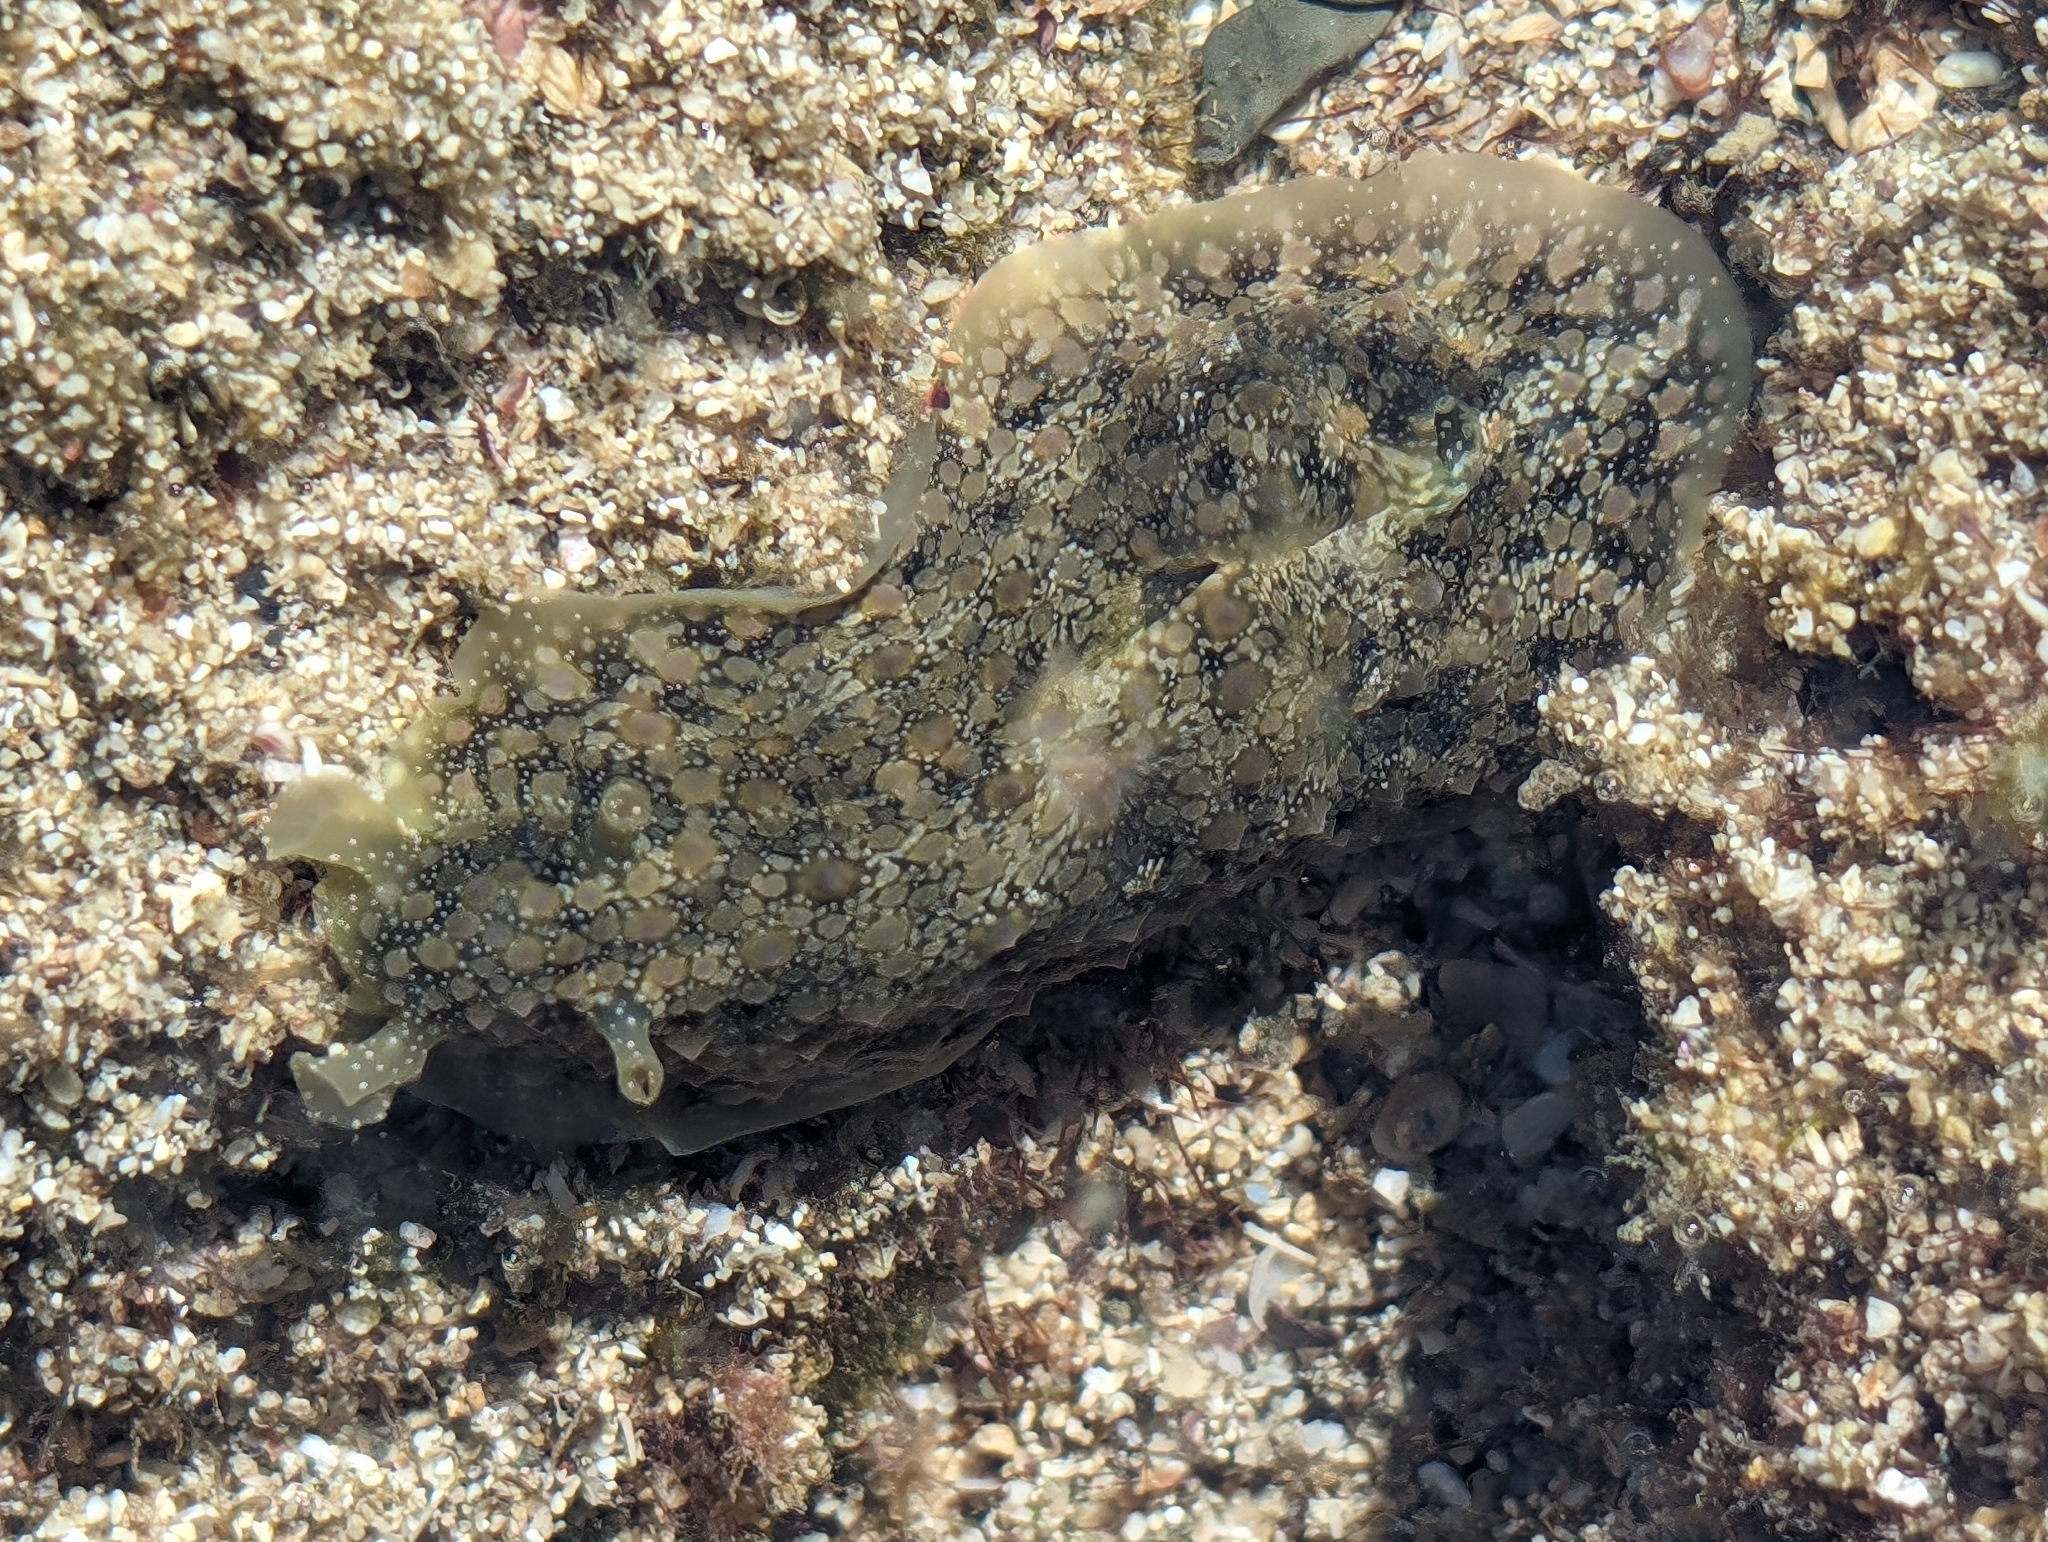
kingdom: Animalia
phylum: Mollusca
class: Gastropoda
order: Aplysiida
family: Aplysiidae
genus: Dolabrifera
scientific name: Dolabrifera nicaraguana
